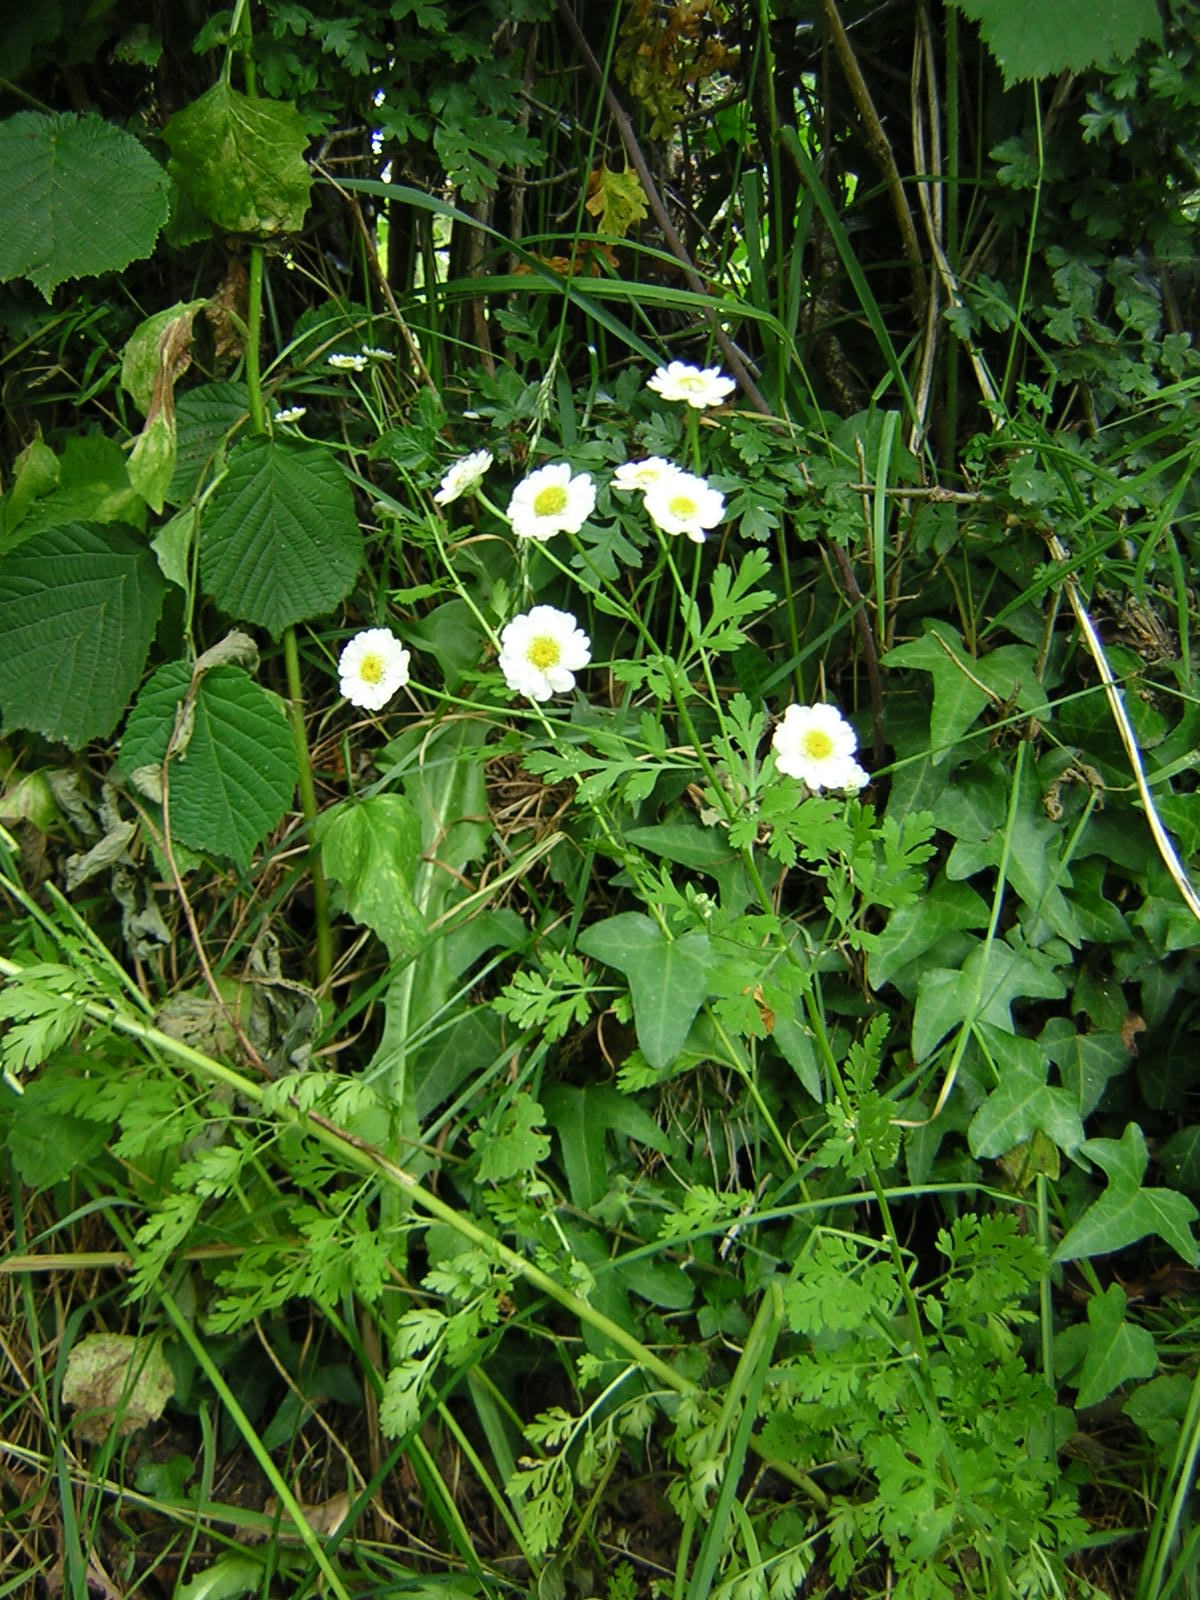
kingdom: Plantae
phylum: Tracheophyta
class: Magnoliopsida
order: Asterales
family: Asteraceae
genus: Tanacetum
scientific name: Tanacetum parthenium
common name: Feverfew
